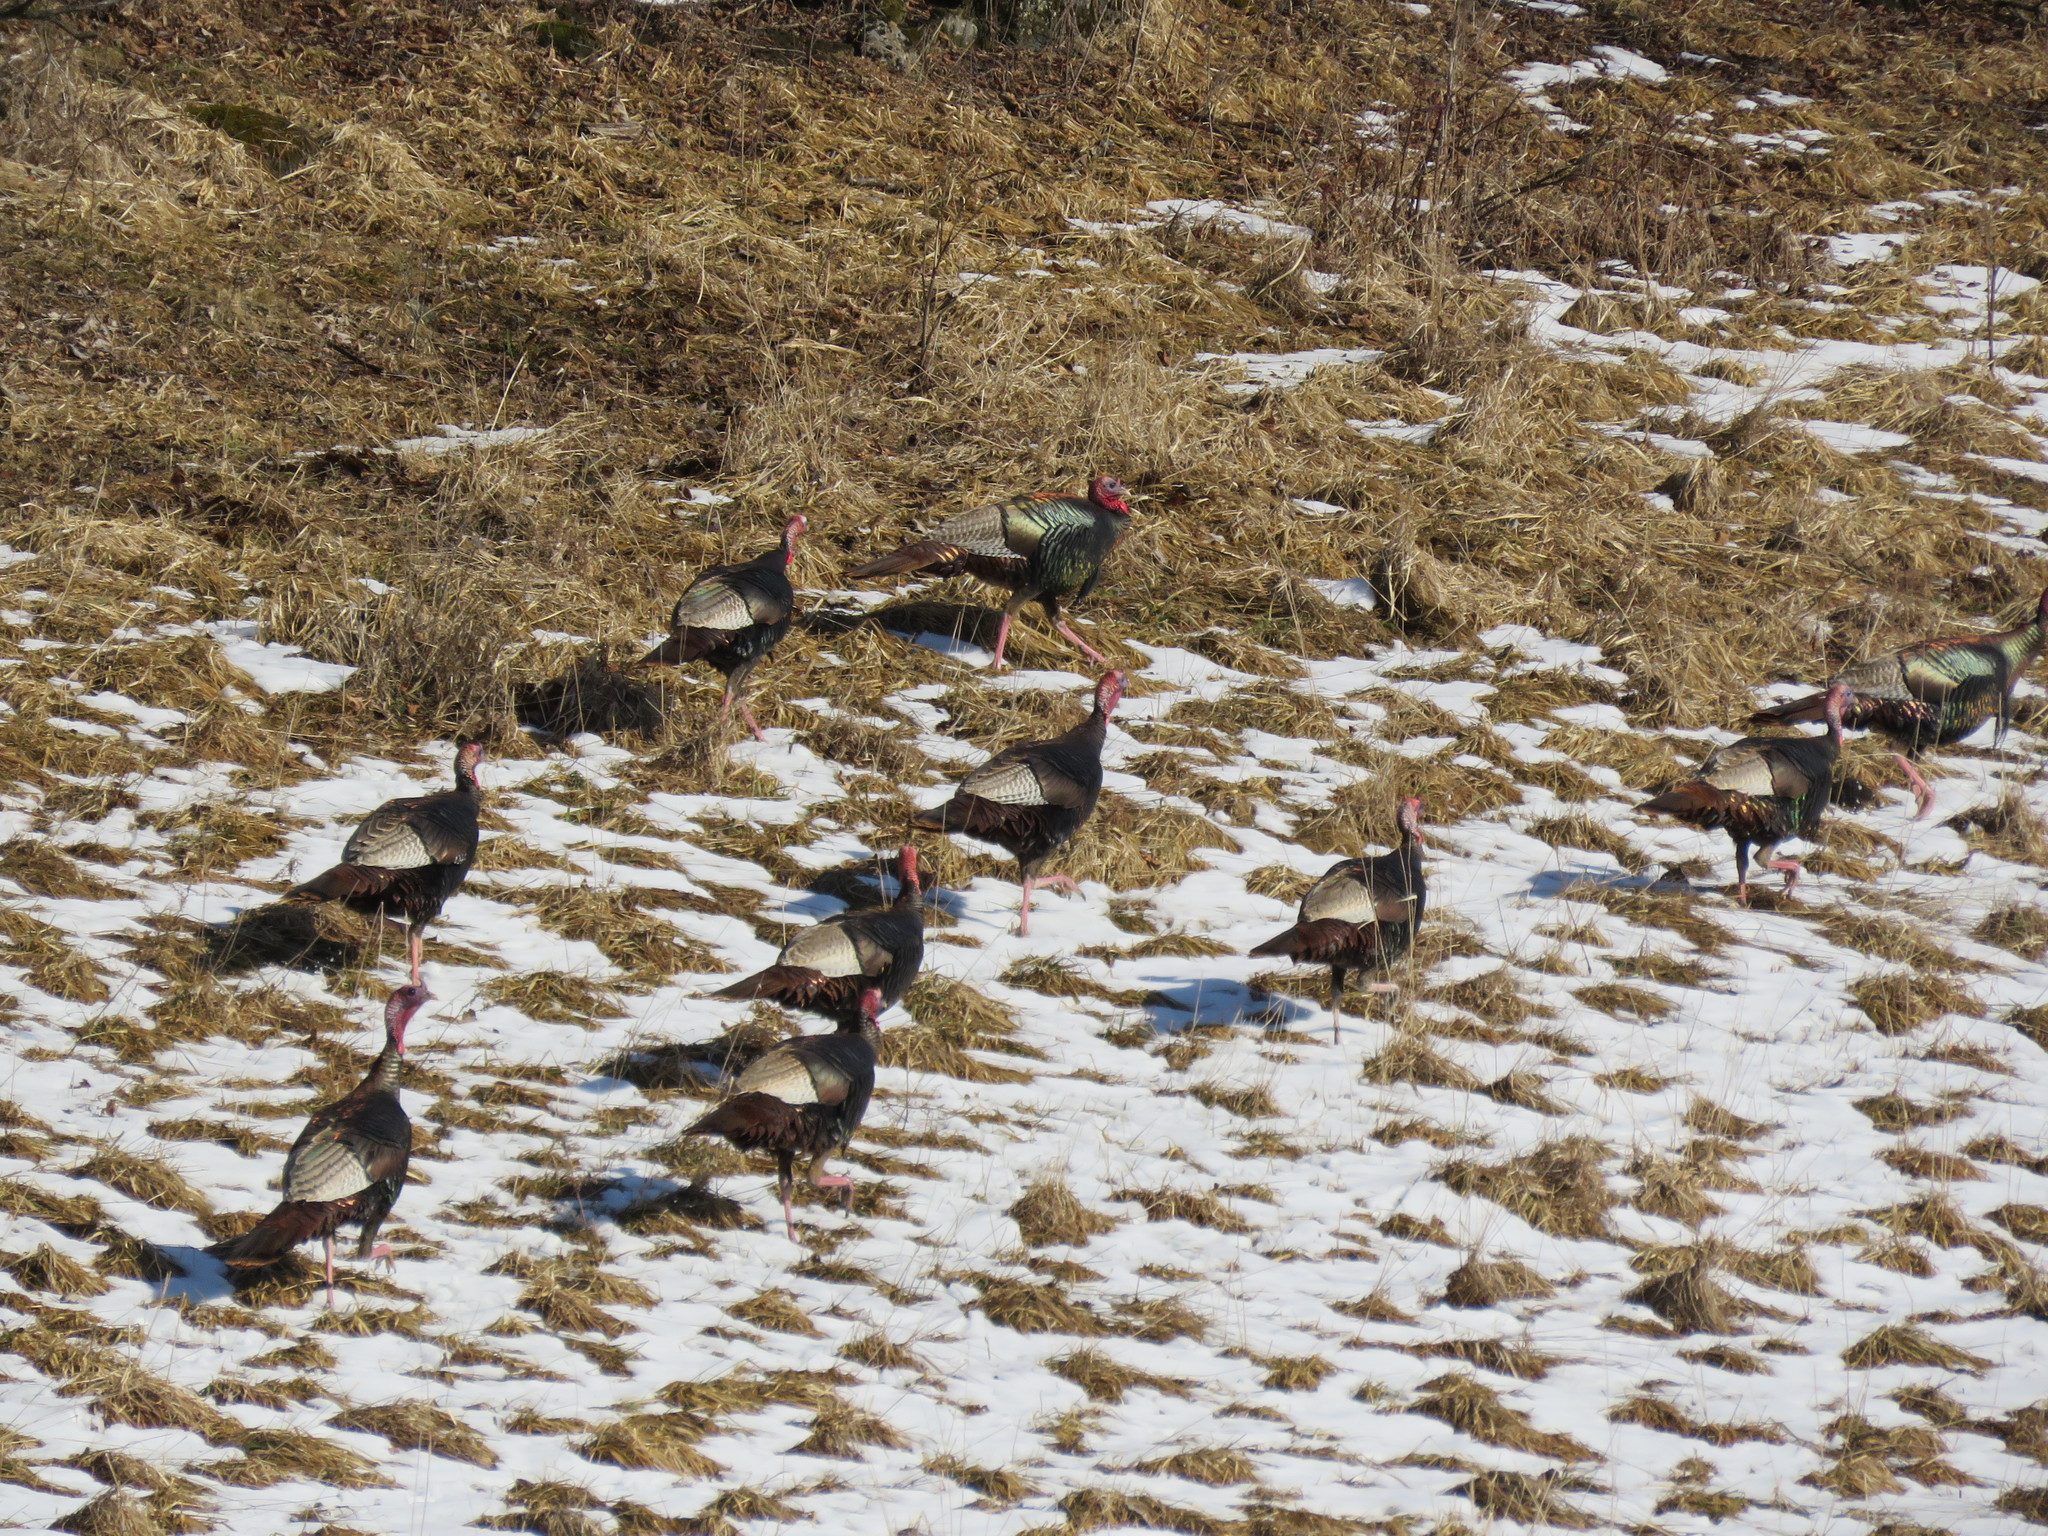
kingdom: Animalia
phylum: Chordata
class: Aves
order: Galliformes
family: Phasianidae
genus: Meleagris
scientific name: Meleagris gallopavo
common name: Wild turkey
